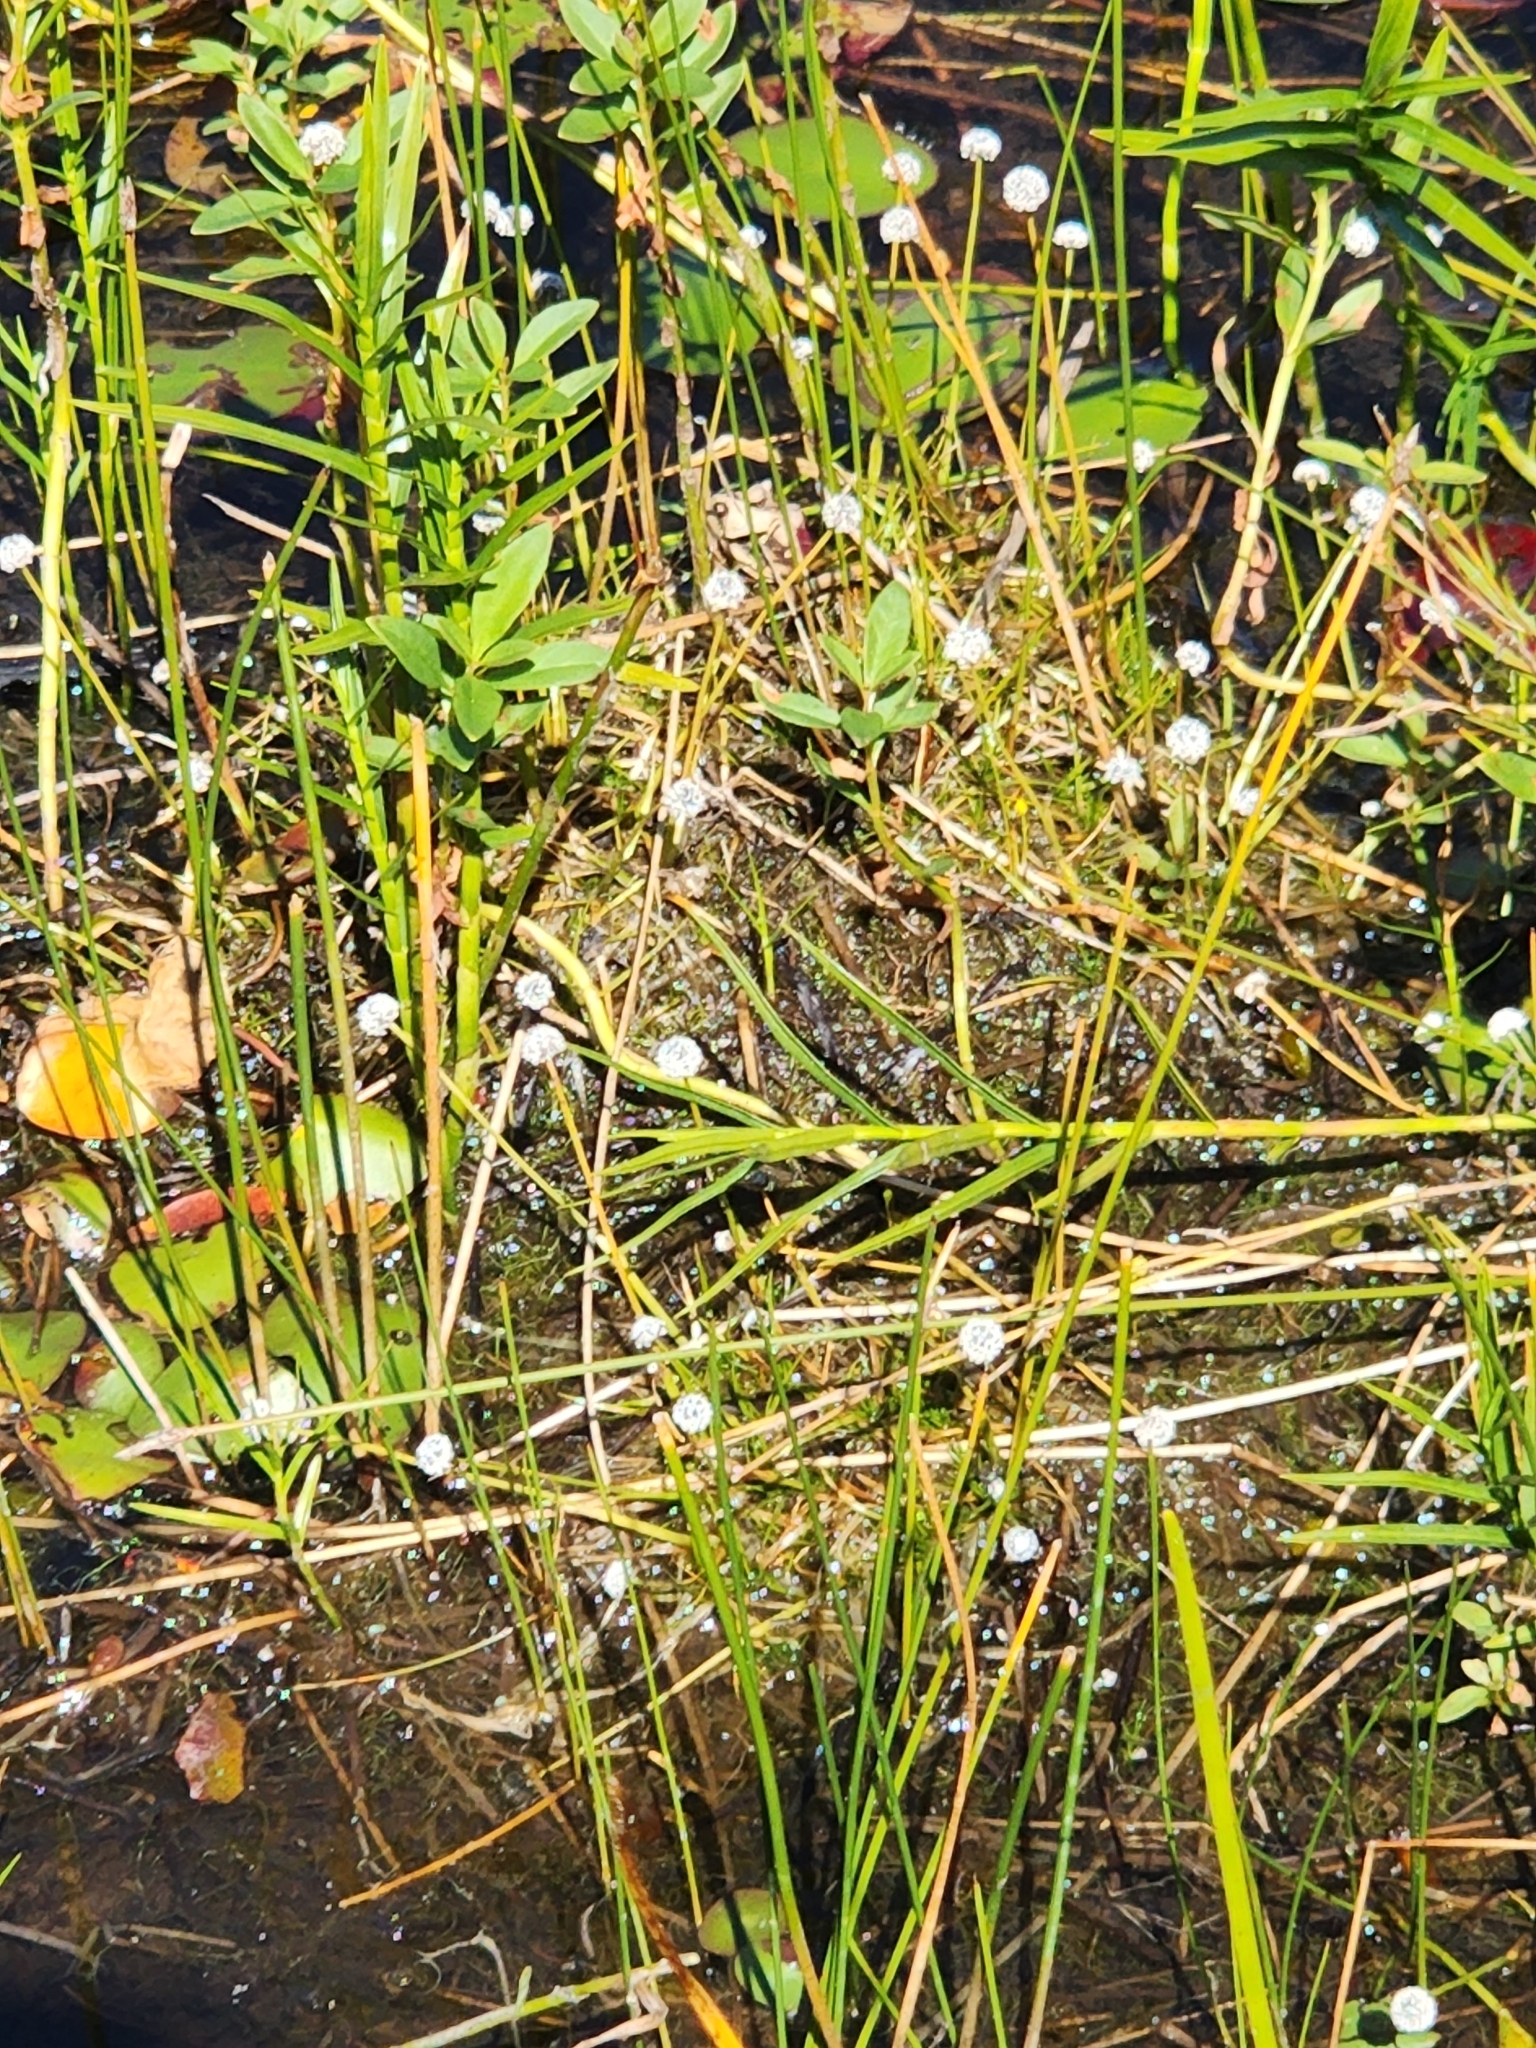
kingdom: Plantae
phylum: Tracheophyta
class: Liliopsida
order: Poales
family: Eriocaulaceae
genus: Eriocaulon
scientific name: Eriocaulon aquaticum
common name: Pipewort
